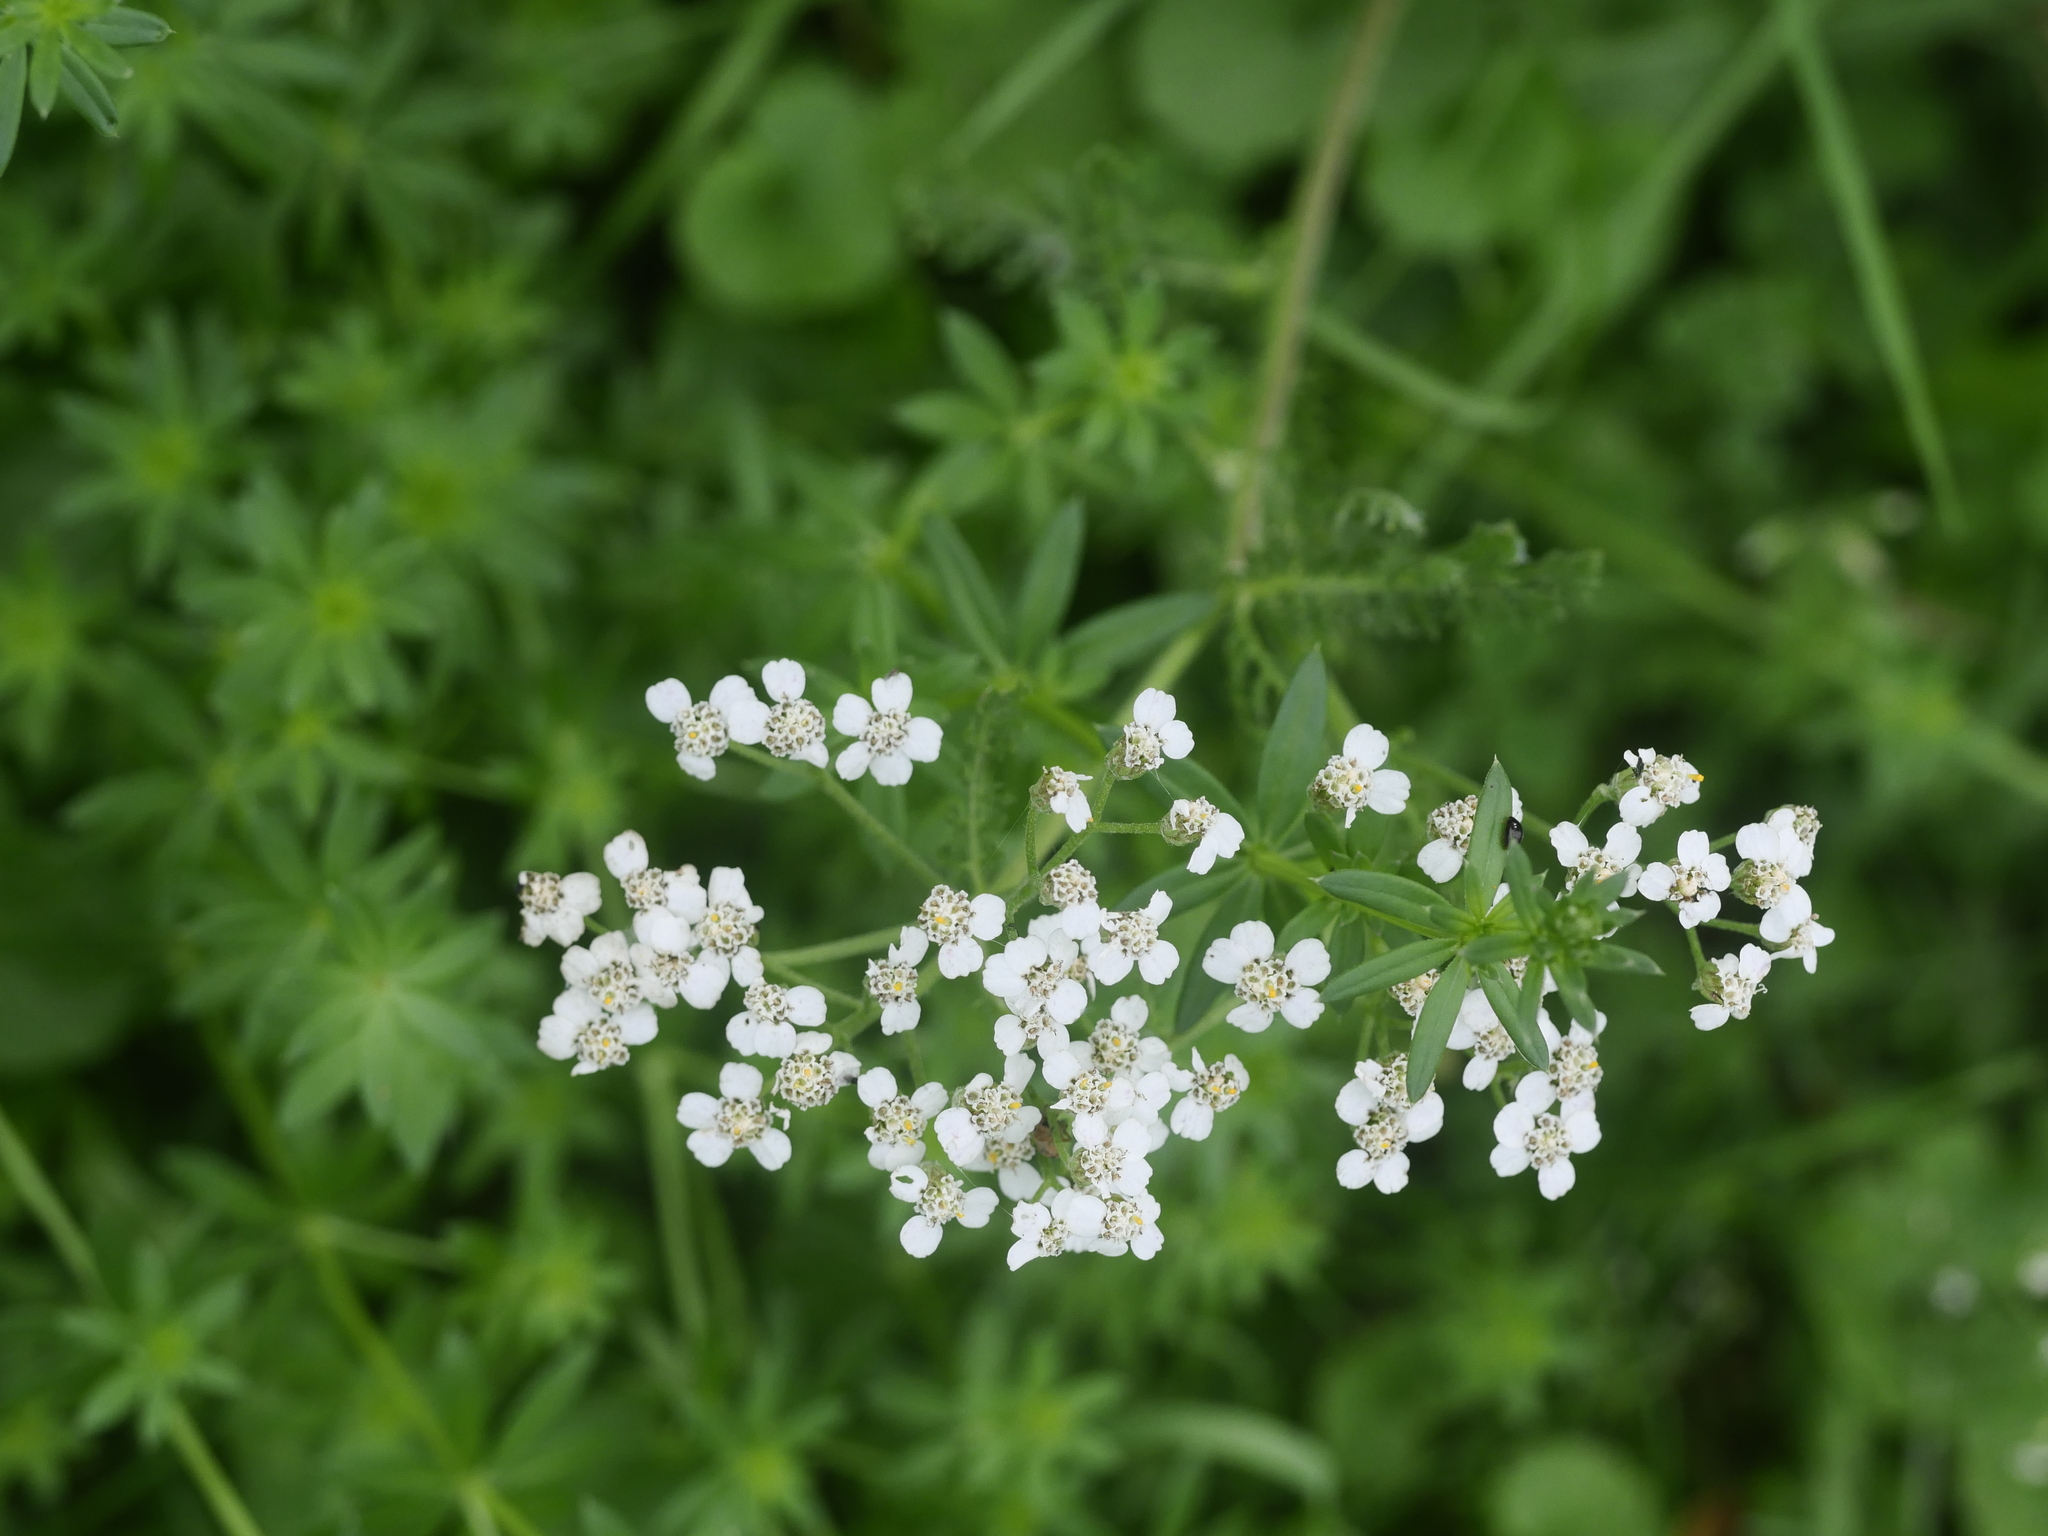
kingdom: Plantae
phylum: Tracheophyta
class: Magnoliopsida
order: Asterales
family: Asteraceae
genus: Achillea
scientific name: Achillea millefolium
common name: Yarrow
